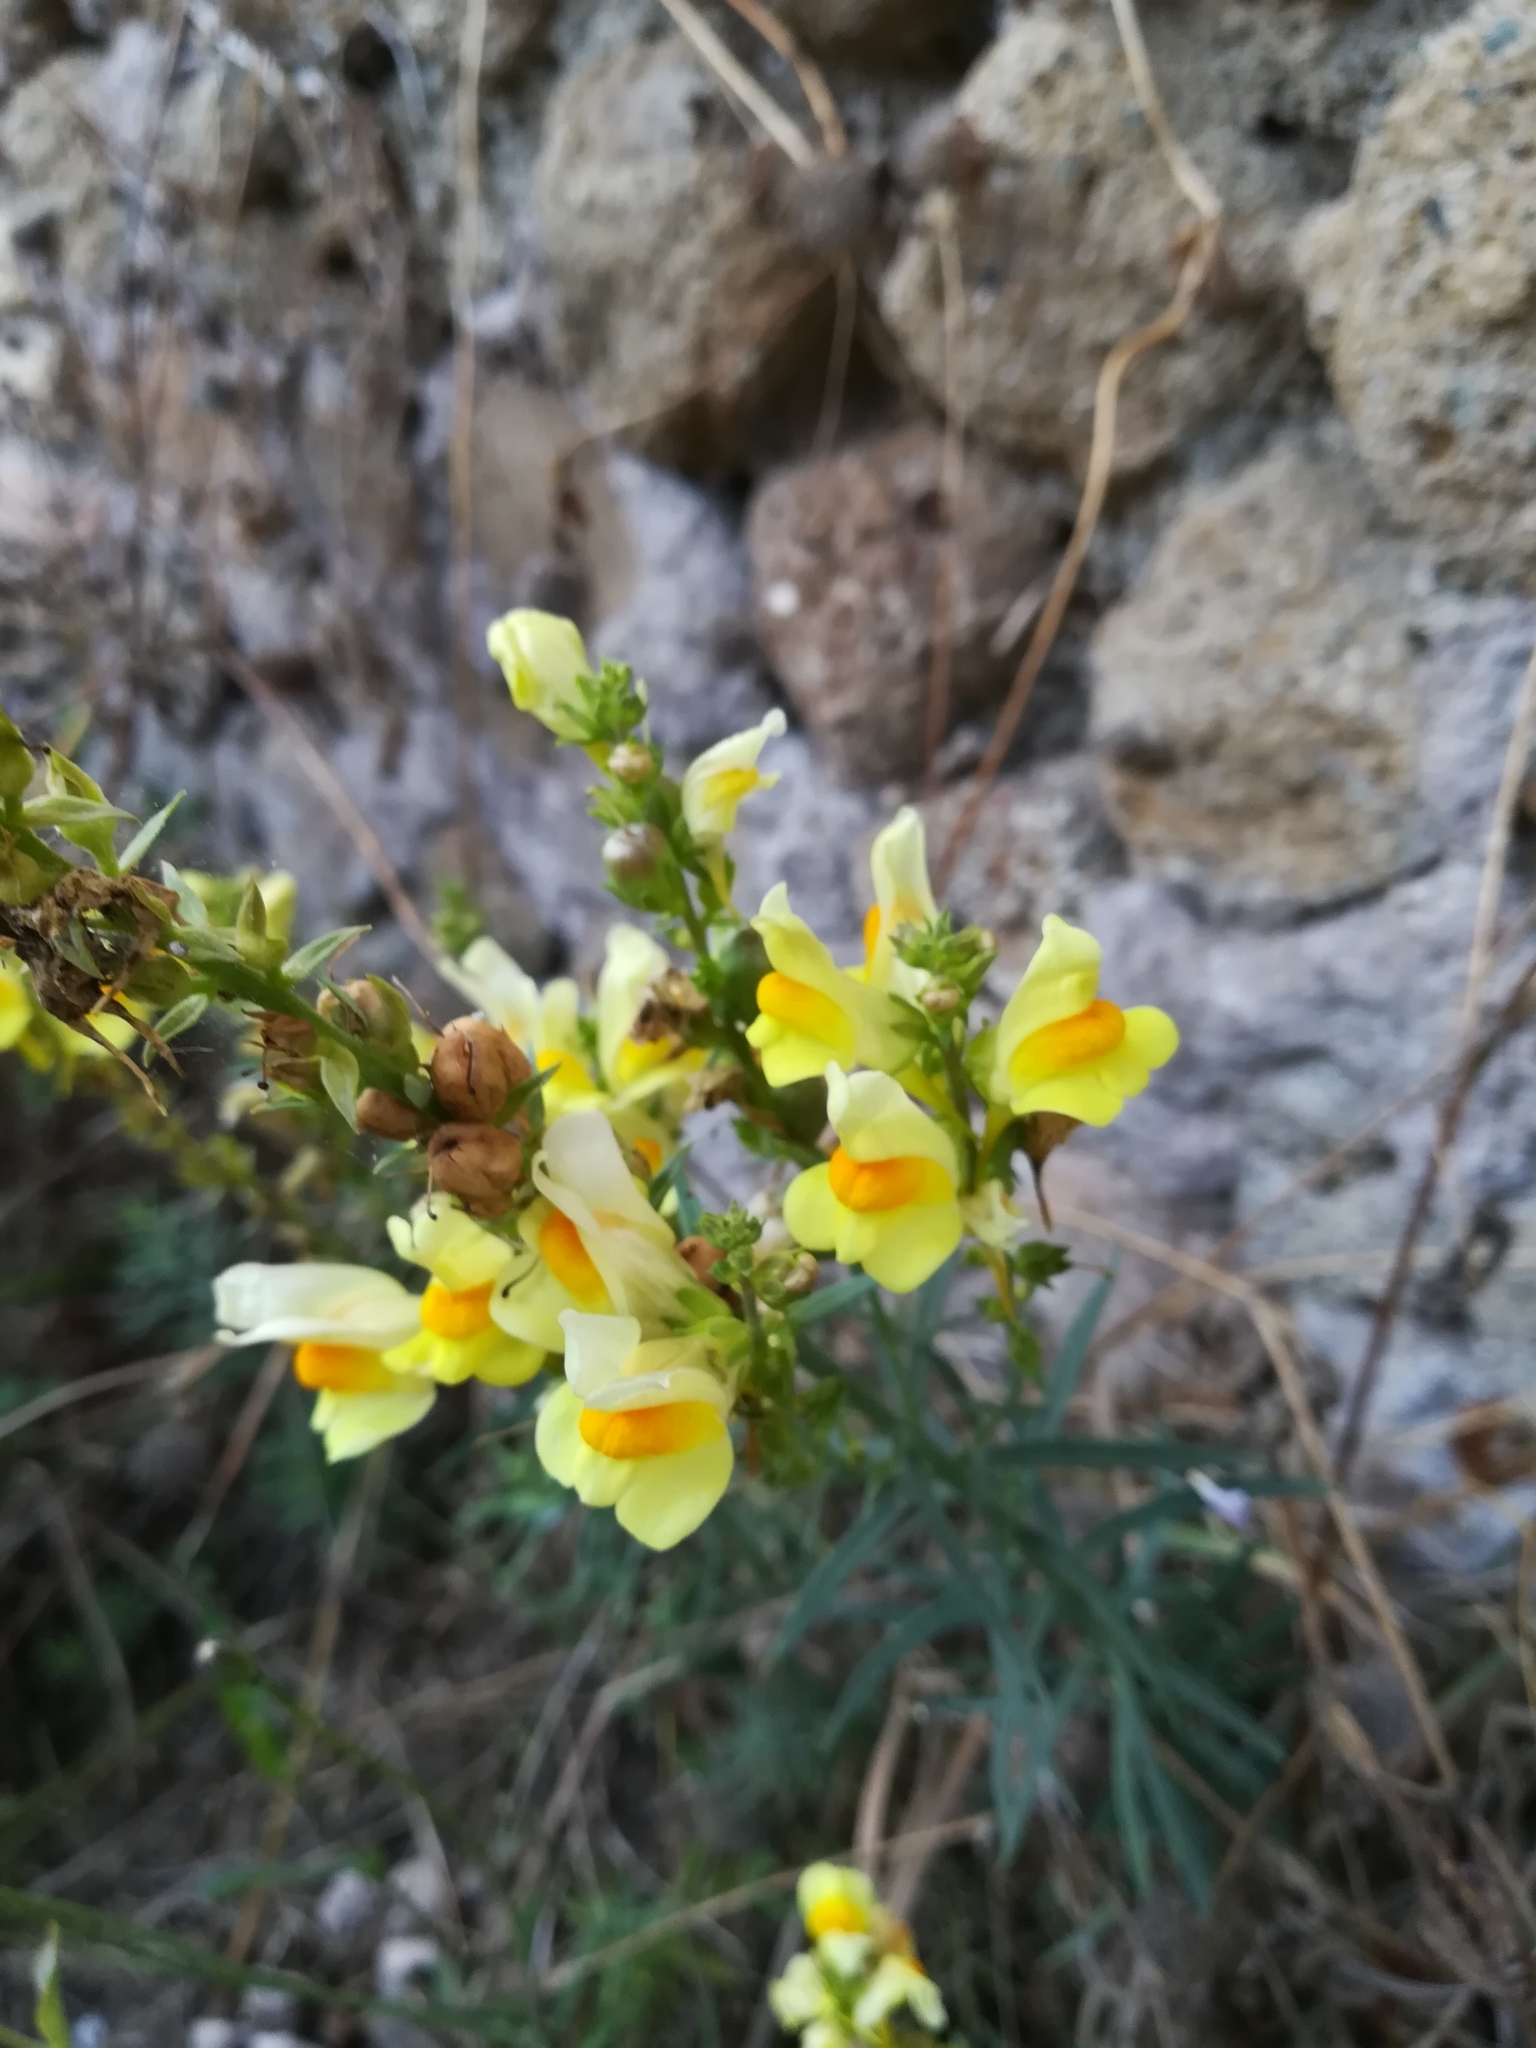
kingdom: Plantae
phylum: Tracheophyta
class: Magnoliopsida
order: Lamiales
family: Plantaginaceae
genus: Linaria
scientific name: Linaria vulgaris
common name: Butter and eggs
